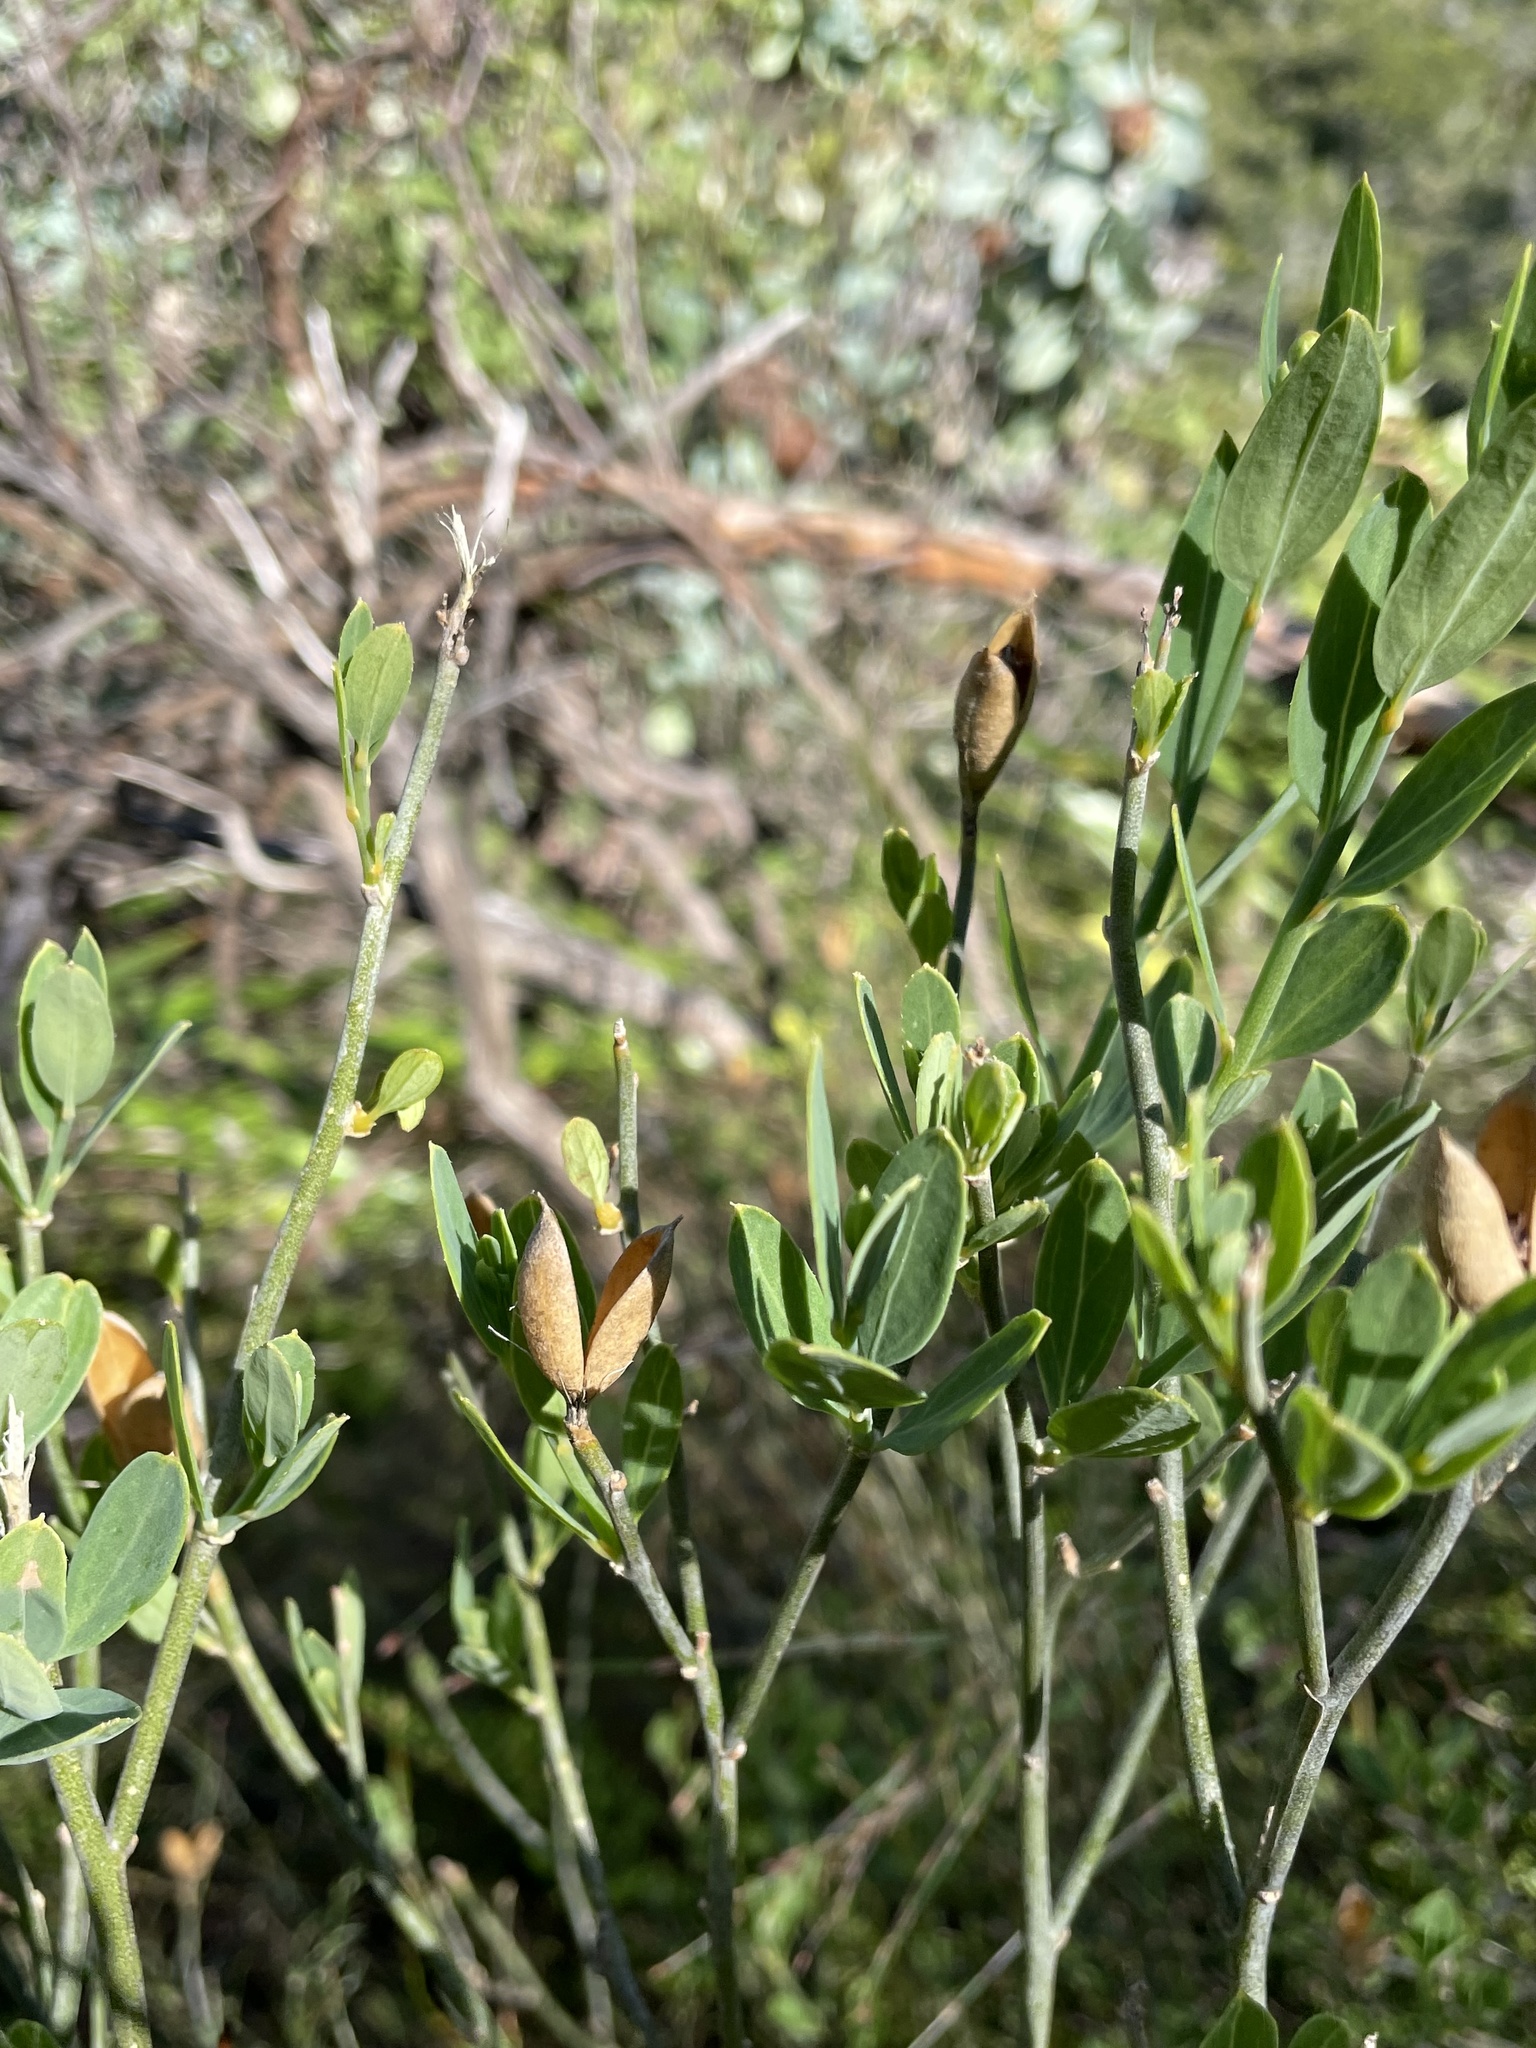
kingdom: Plantae
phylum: Tracheophyta
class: Magnoliopsida
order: Solanales
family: Montiniaceae
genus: Montinia
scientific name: Montinia caryophyllacea
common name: Wild clove-bush
